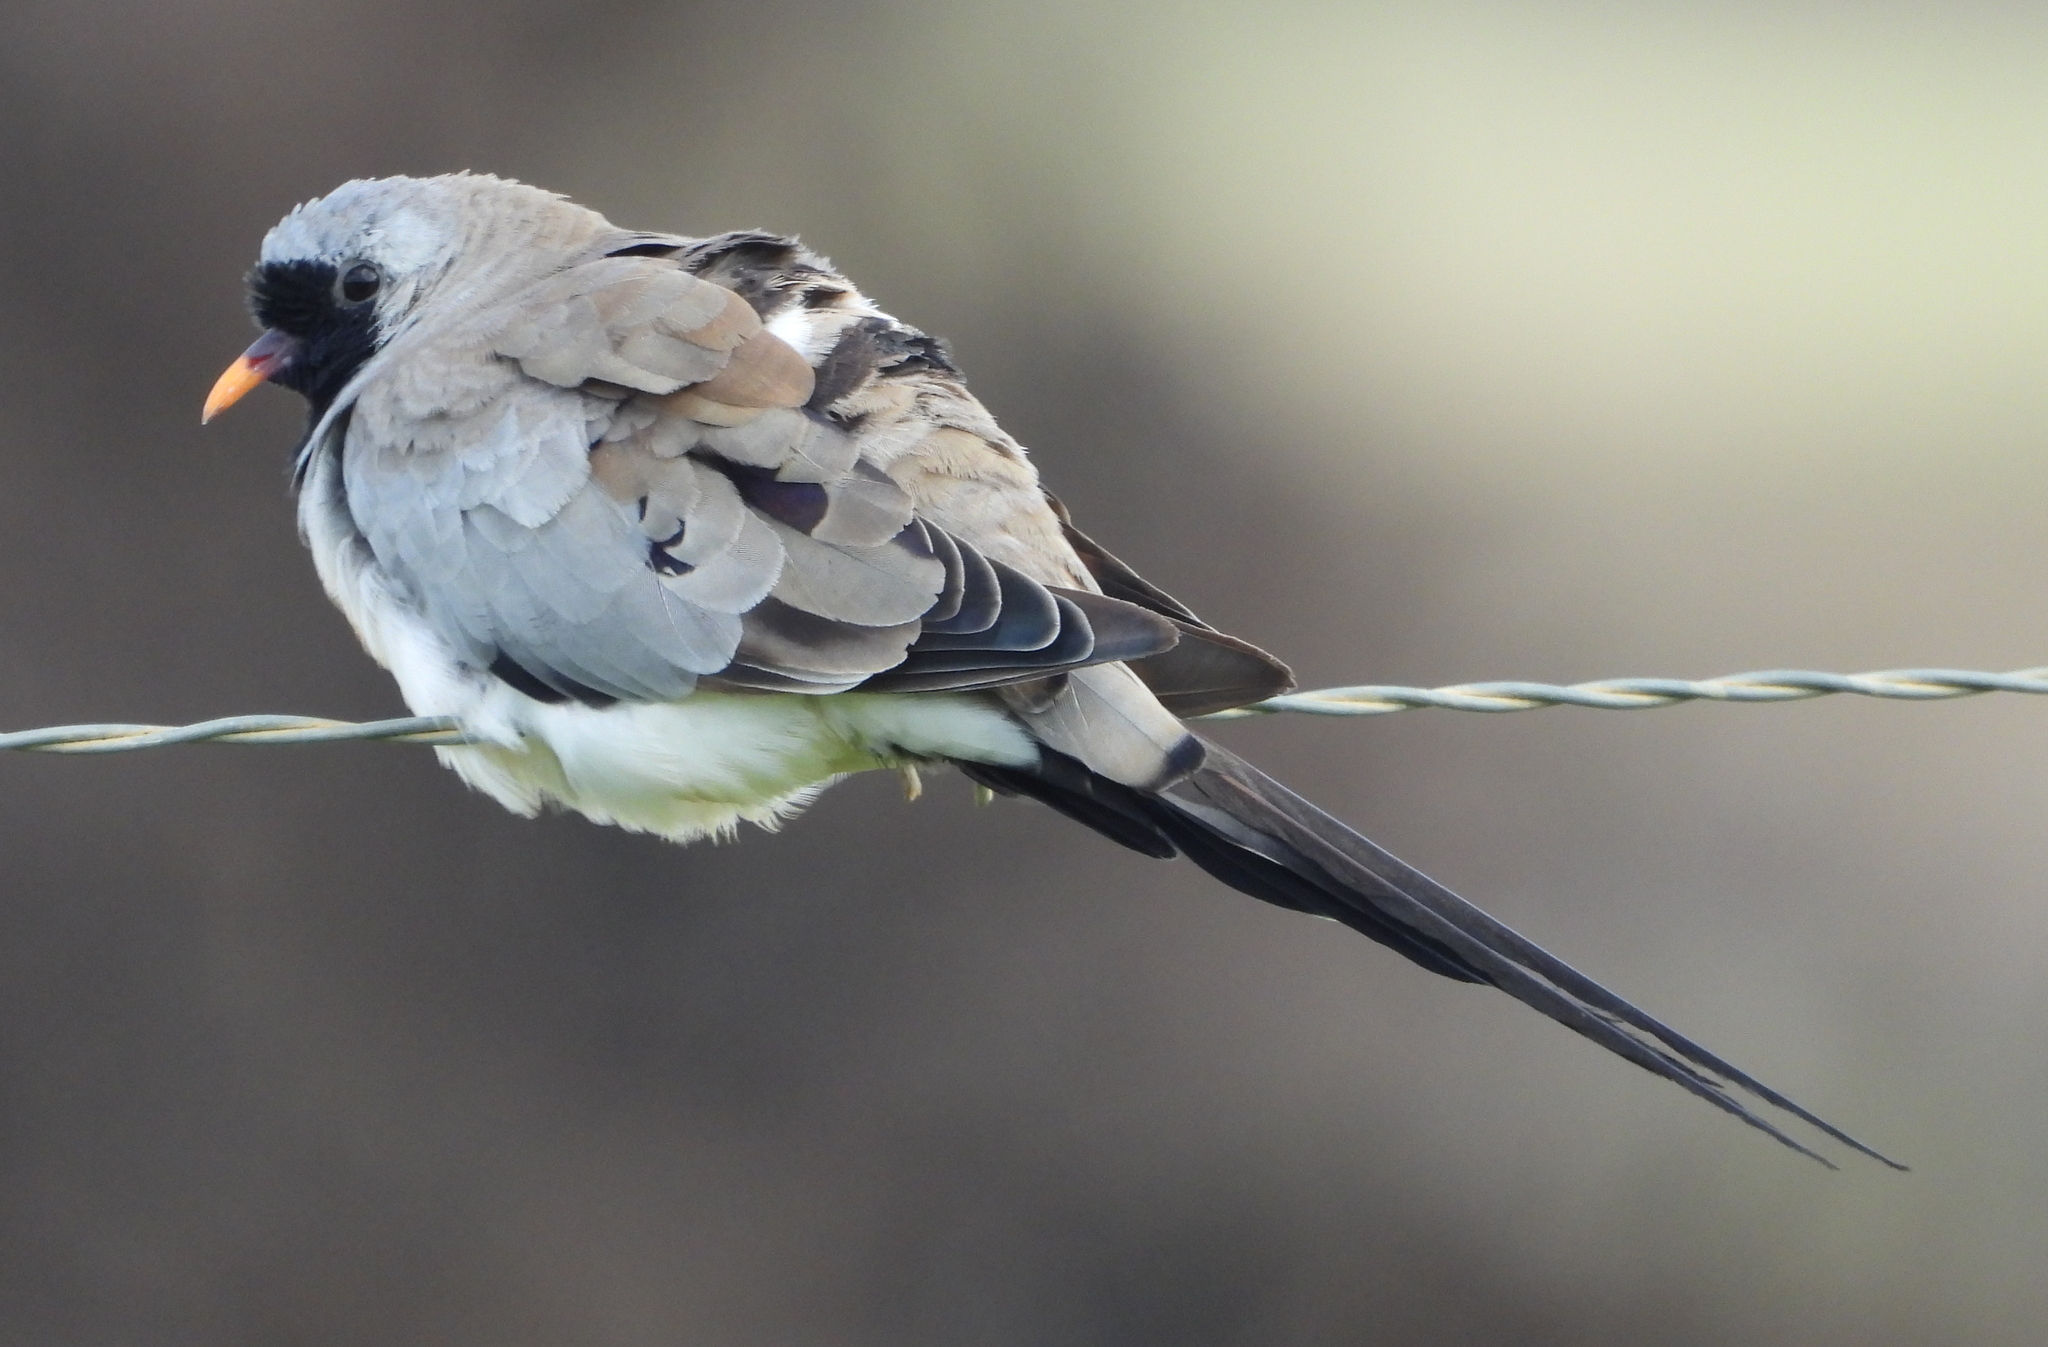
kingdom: Animalia
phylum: Chordata
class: Aves
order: Columbiformes
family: Columbidae
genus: Oena
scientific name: Oena capensis
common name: Namaqua dove
